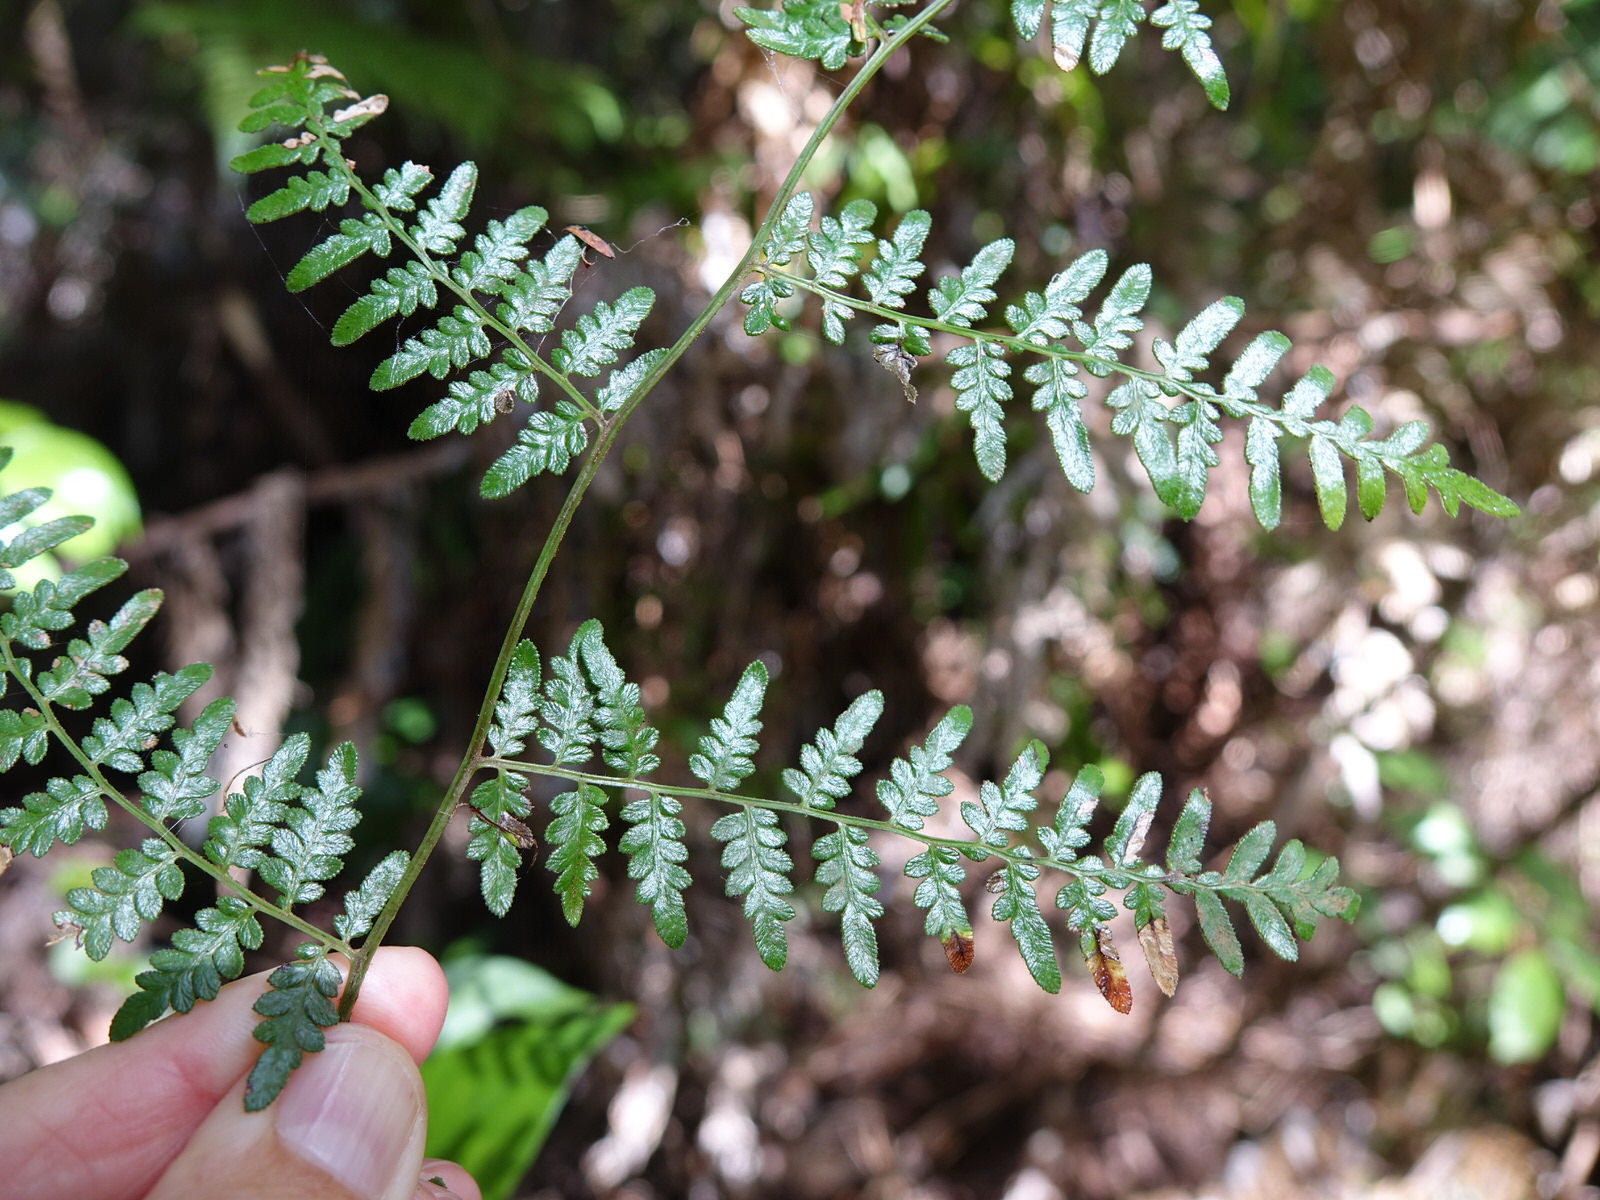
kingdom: Plantae
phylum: Tracheophyta
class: Polypodiopsida
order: Polypodiales
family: Dennstaedtiaceae
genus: Pteridium
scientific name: Pteridium esculentum
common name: Bracken fern
